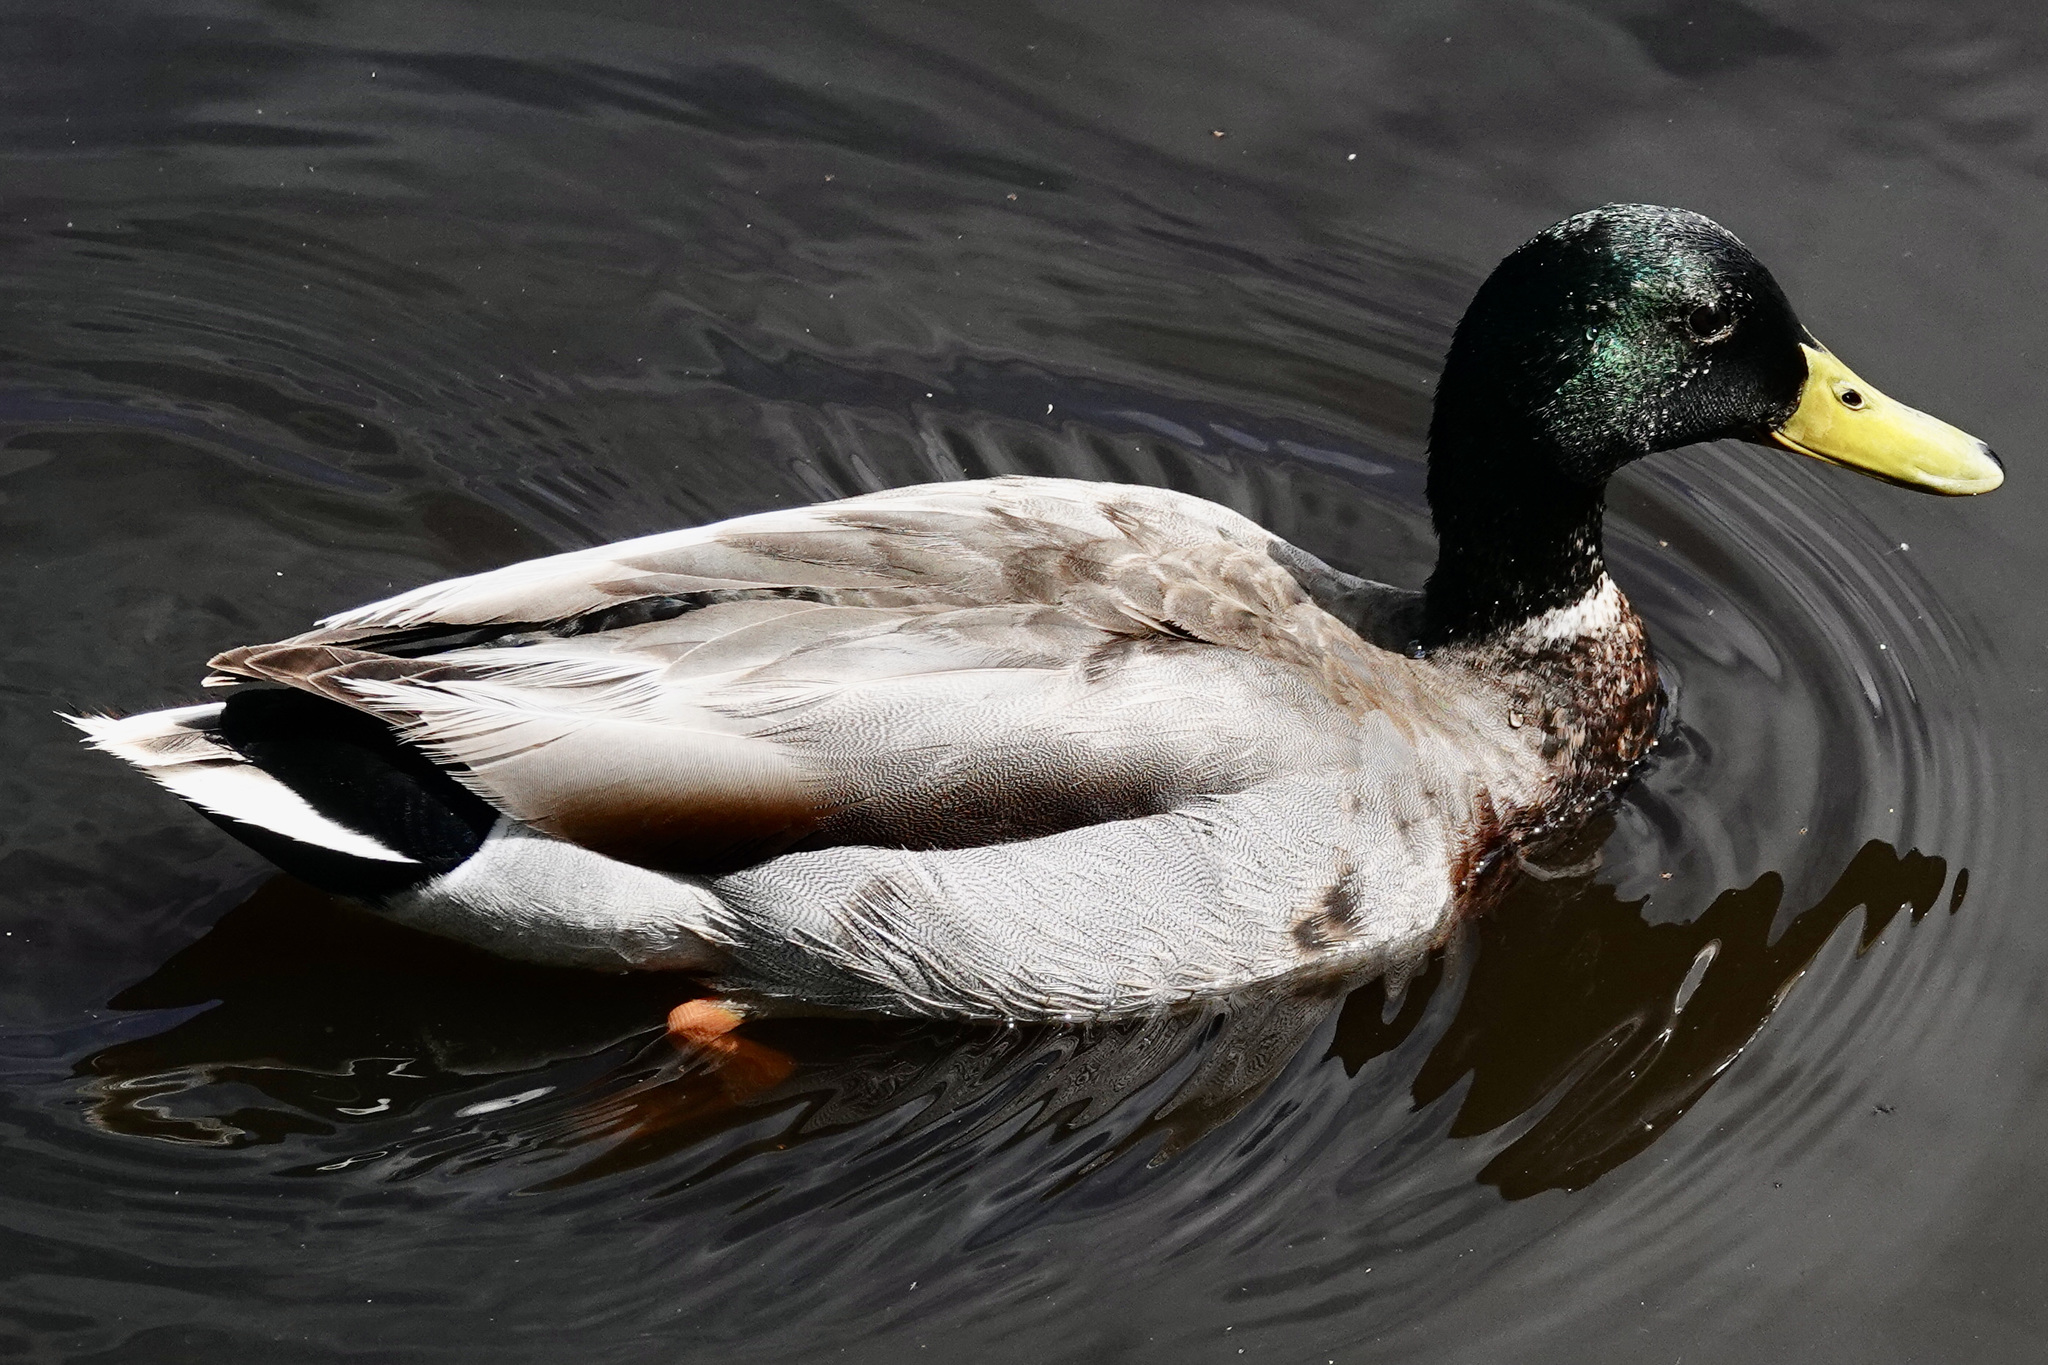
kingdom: Animalia
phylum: Chordata
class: Aves
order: Anseriformes
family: Anatidae
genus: Anas
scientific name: Anas platyrhynchos
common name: Mallard
